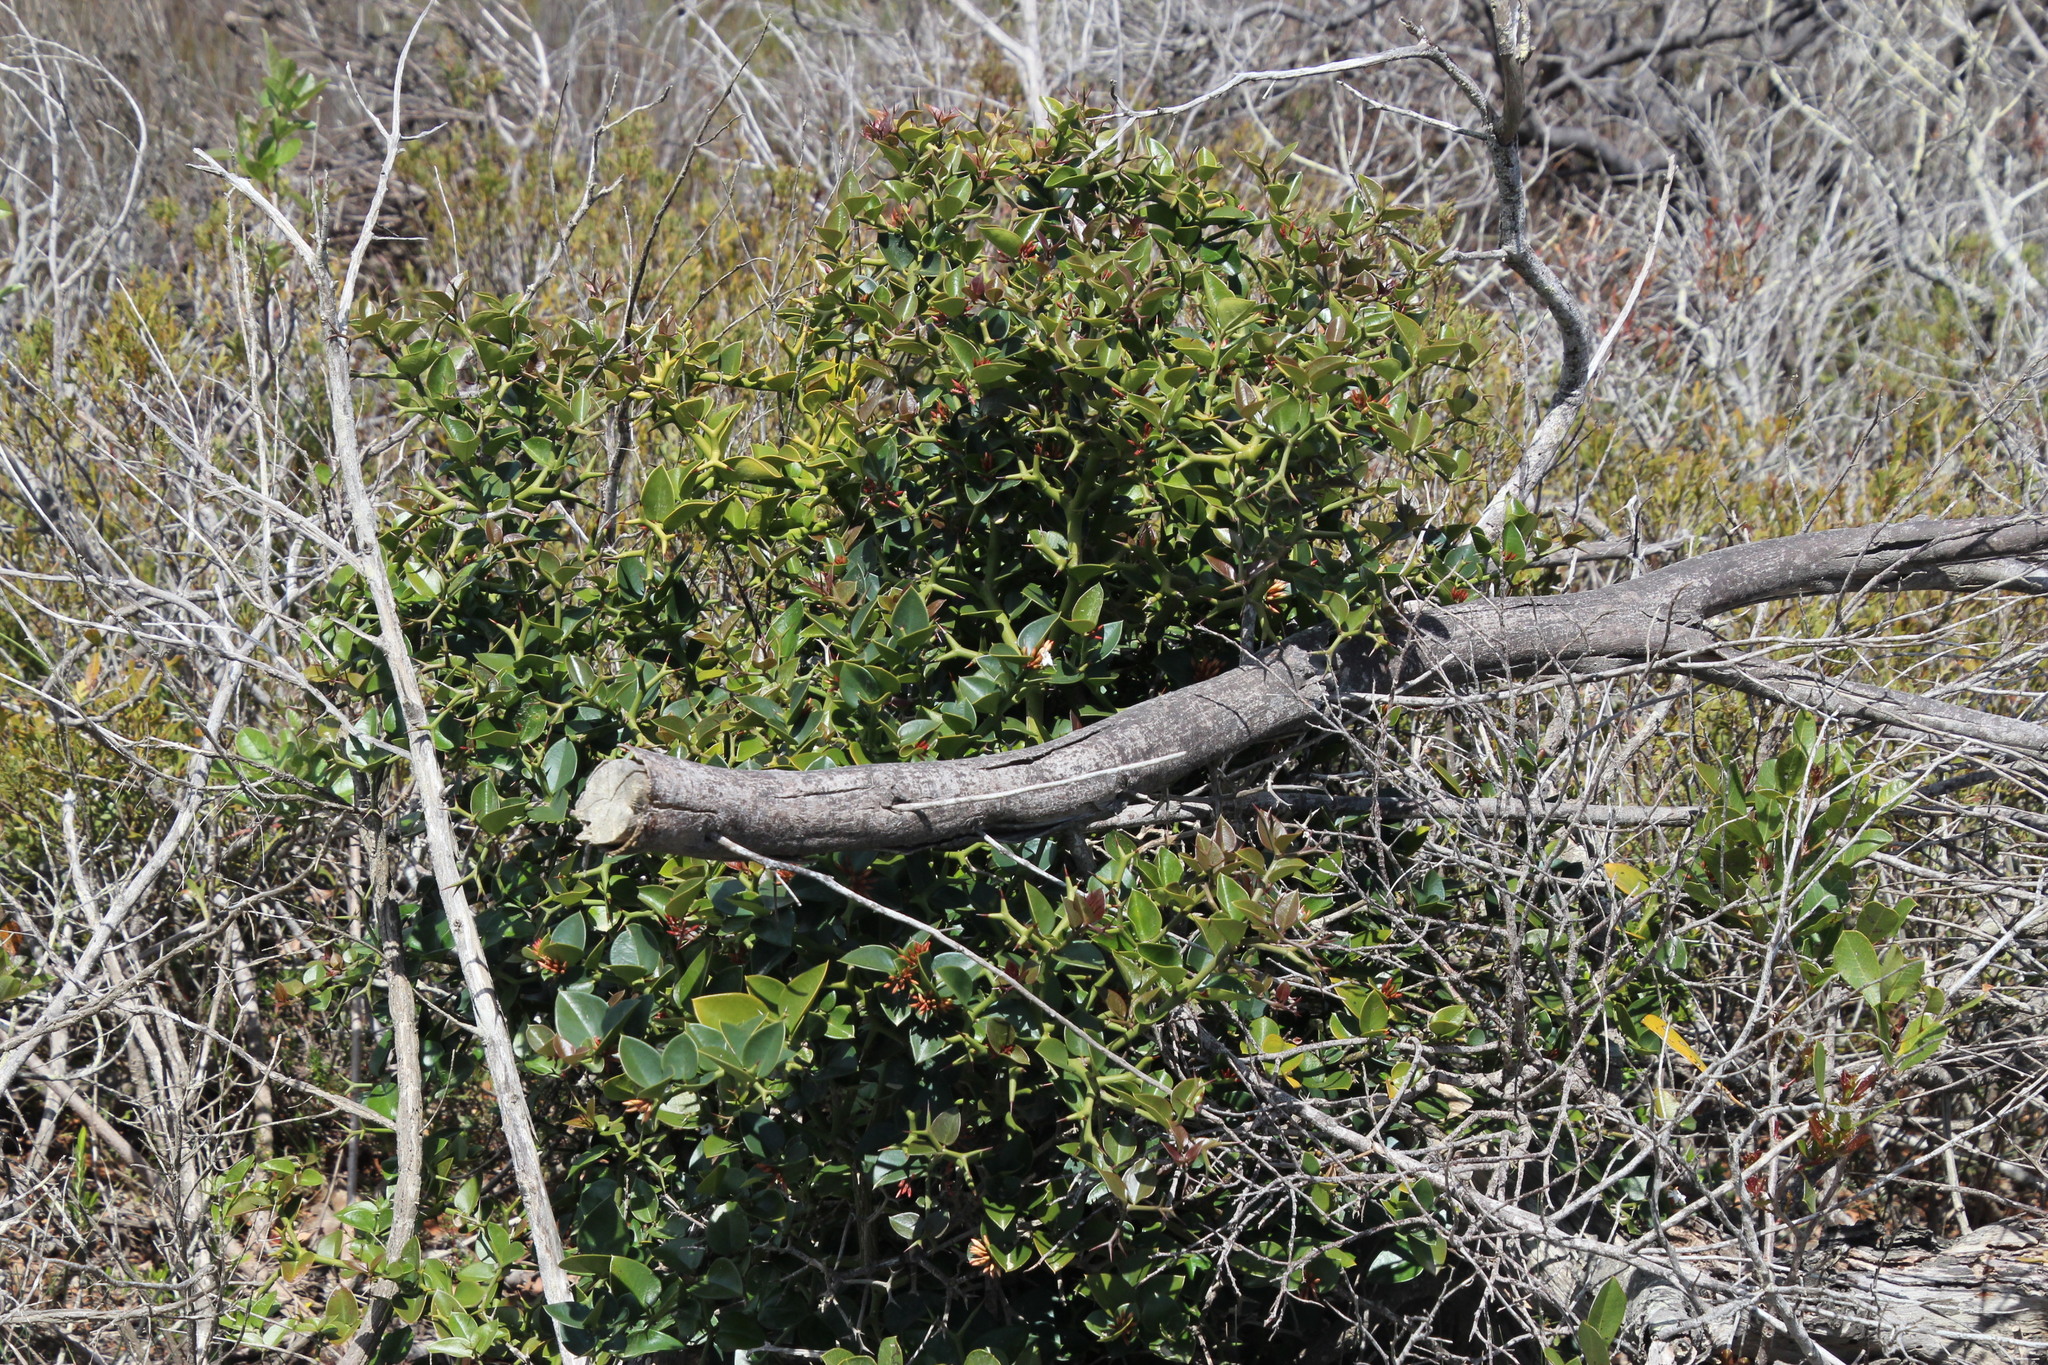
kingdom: Plantae
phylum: Tracheophyta
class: Magnoliopsida
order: Gentianales
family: Apocynaceae
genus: Carissa
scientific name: Carissa bispinosa
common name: Forest num-num
